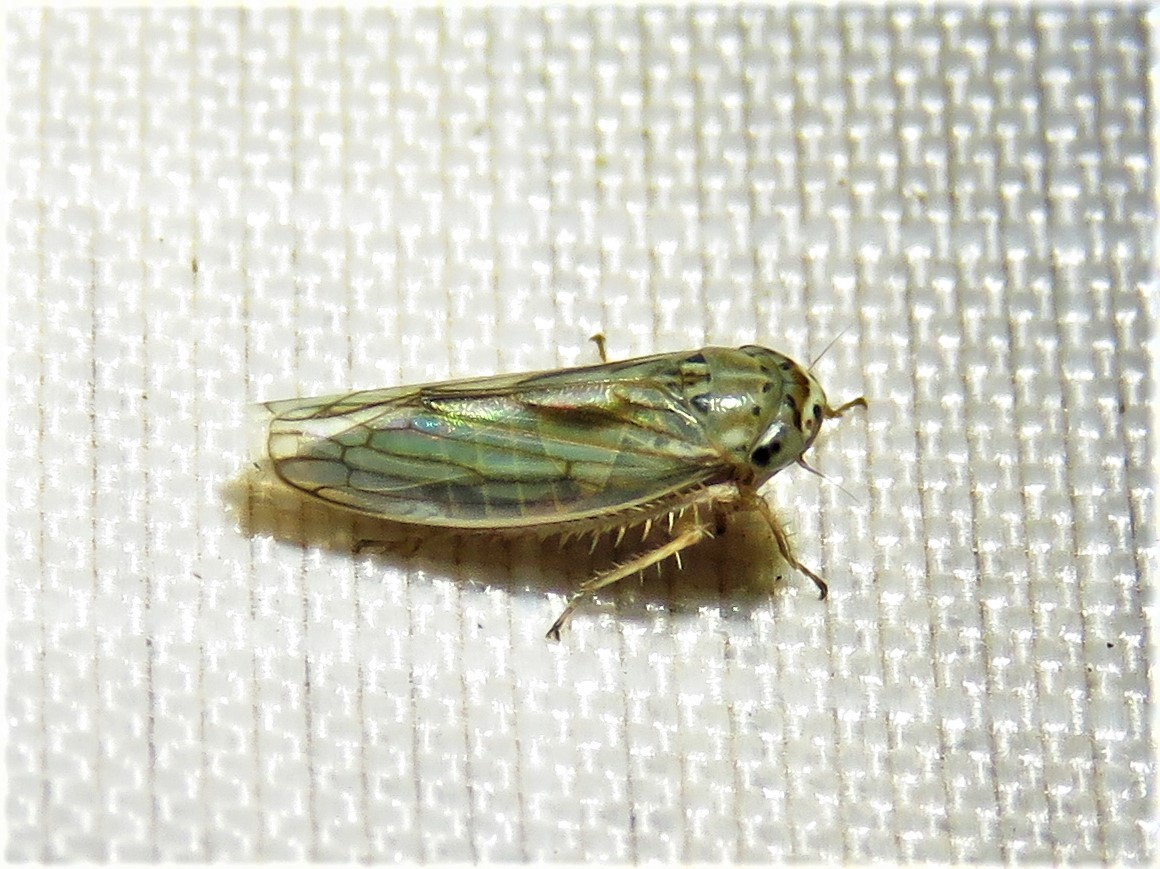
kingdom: Animalia
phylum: Arthropoda
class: Insecta
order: Hemiptera
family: Cicadellidae
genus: Exitianus
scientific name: Exitianus exitiosus
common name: Gray lawn leafhopper
